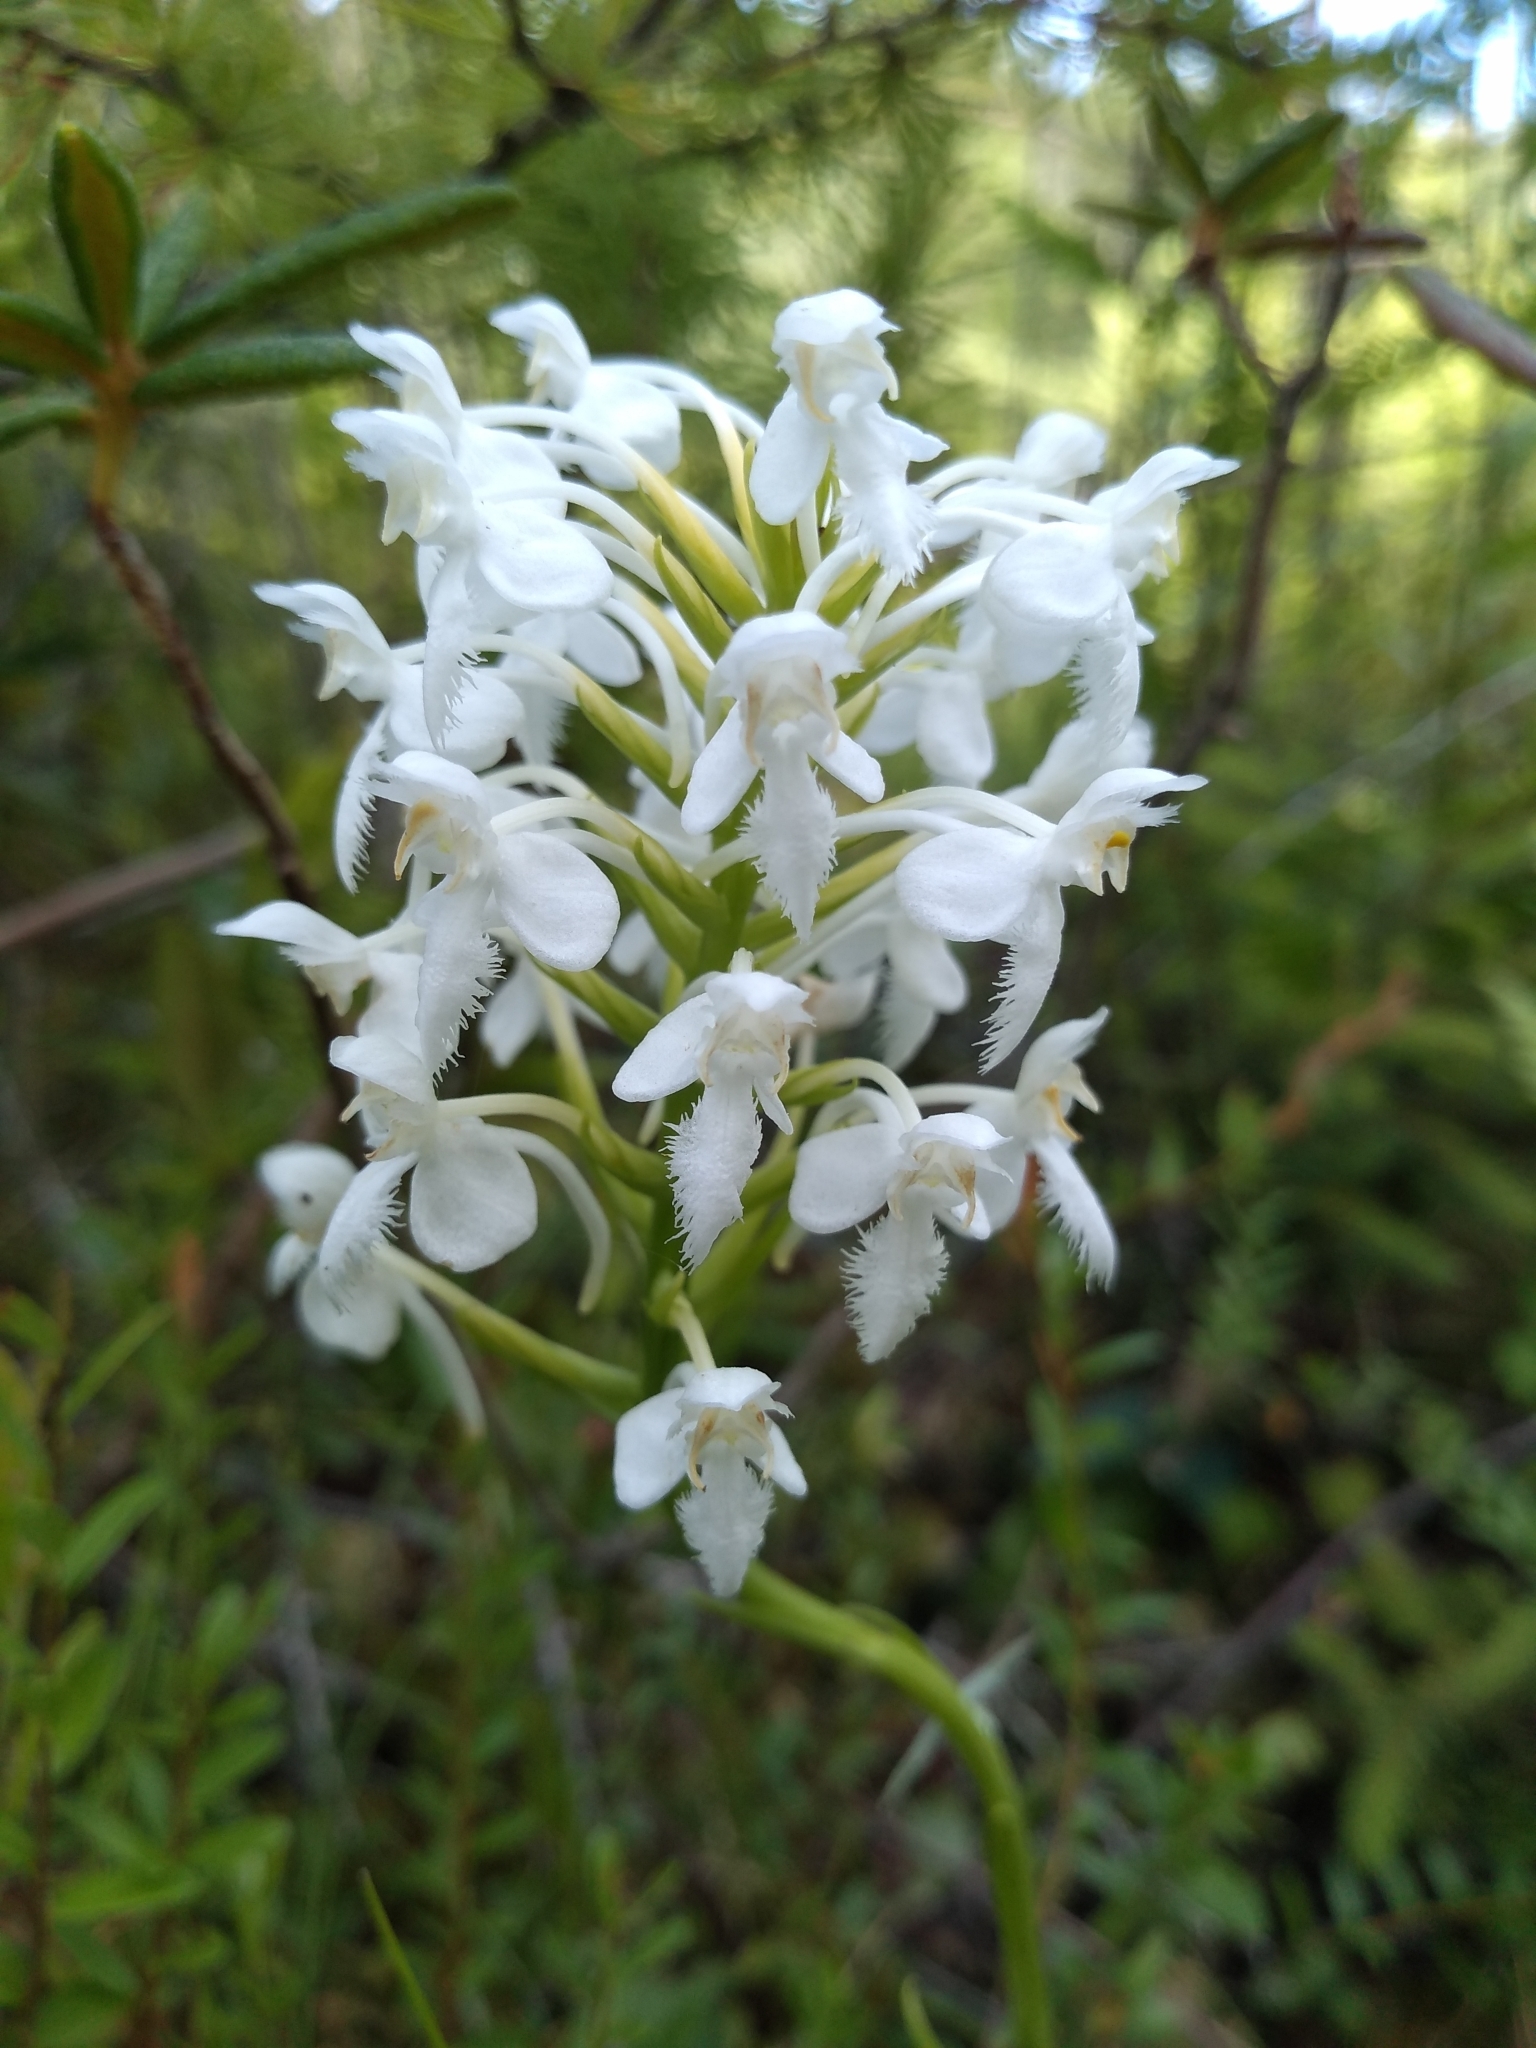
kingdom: Plantae
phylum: Tracheophyta
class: Liliopsida
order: Asparagales
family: Orchidaceae
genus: Platanthera
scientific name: Platanthera blephariglottis
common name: White fringed orchid
